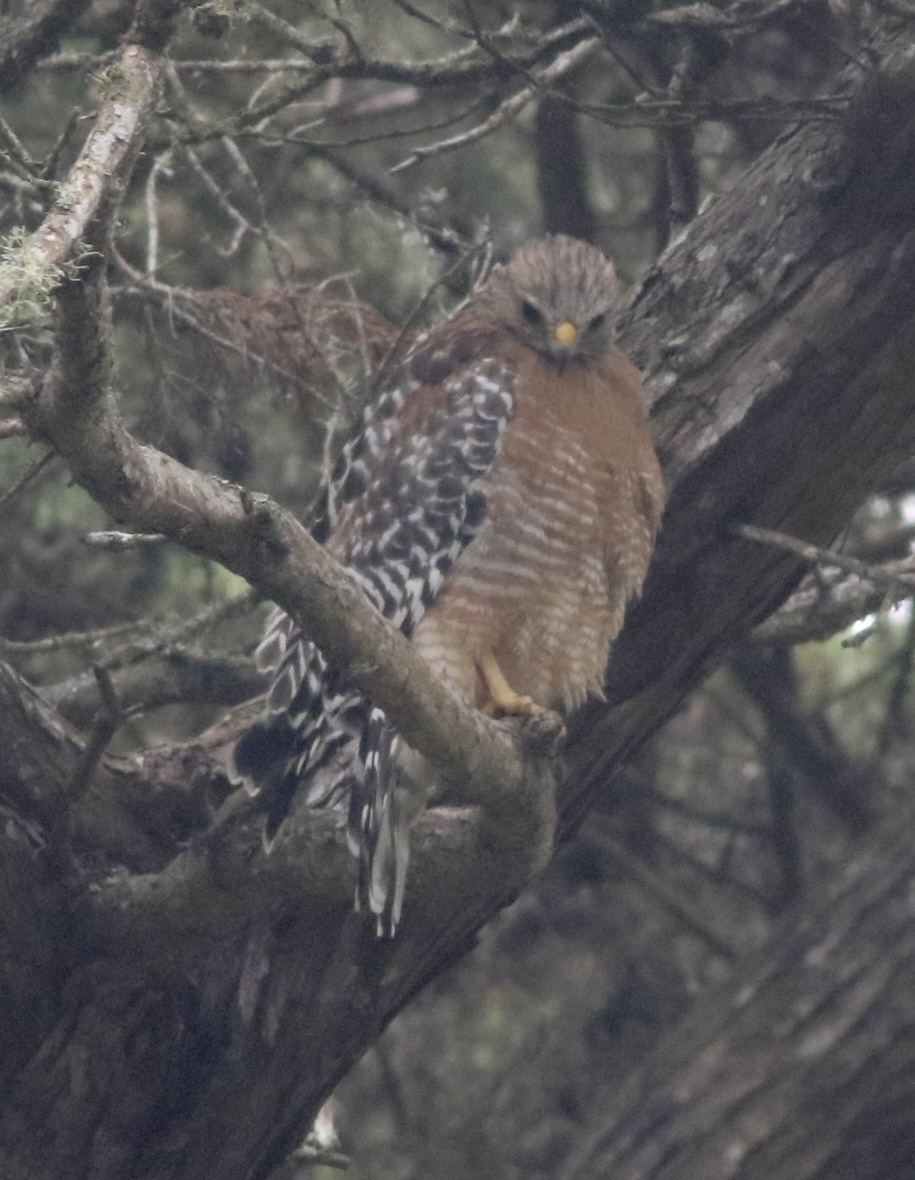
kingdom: Animalia
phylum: Chordata
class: Aves
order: Accipitriformes
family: Accipitridae
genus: Buteo
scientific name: Buteo lineatus
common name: Red-shouldered hawk
